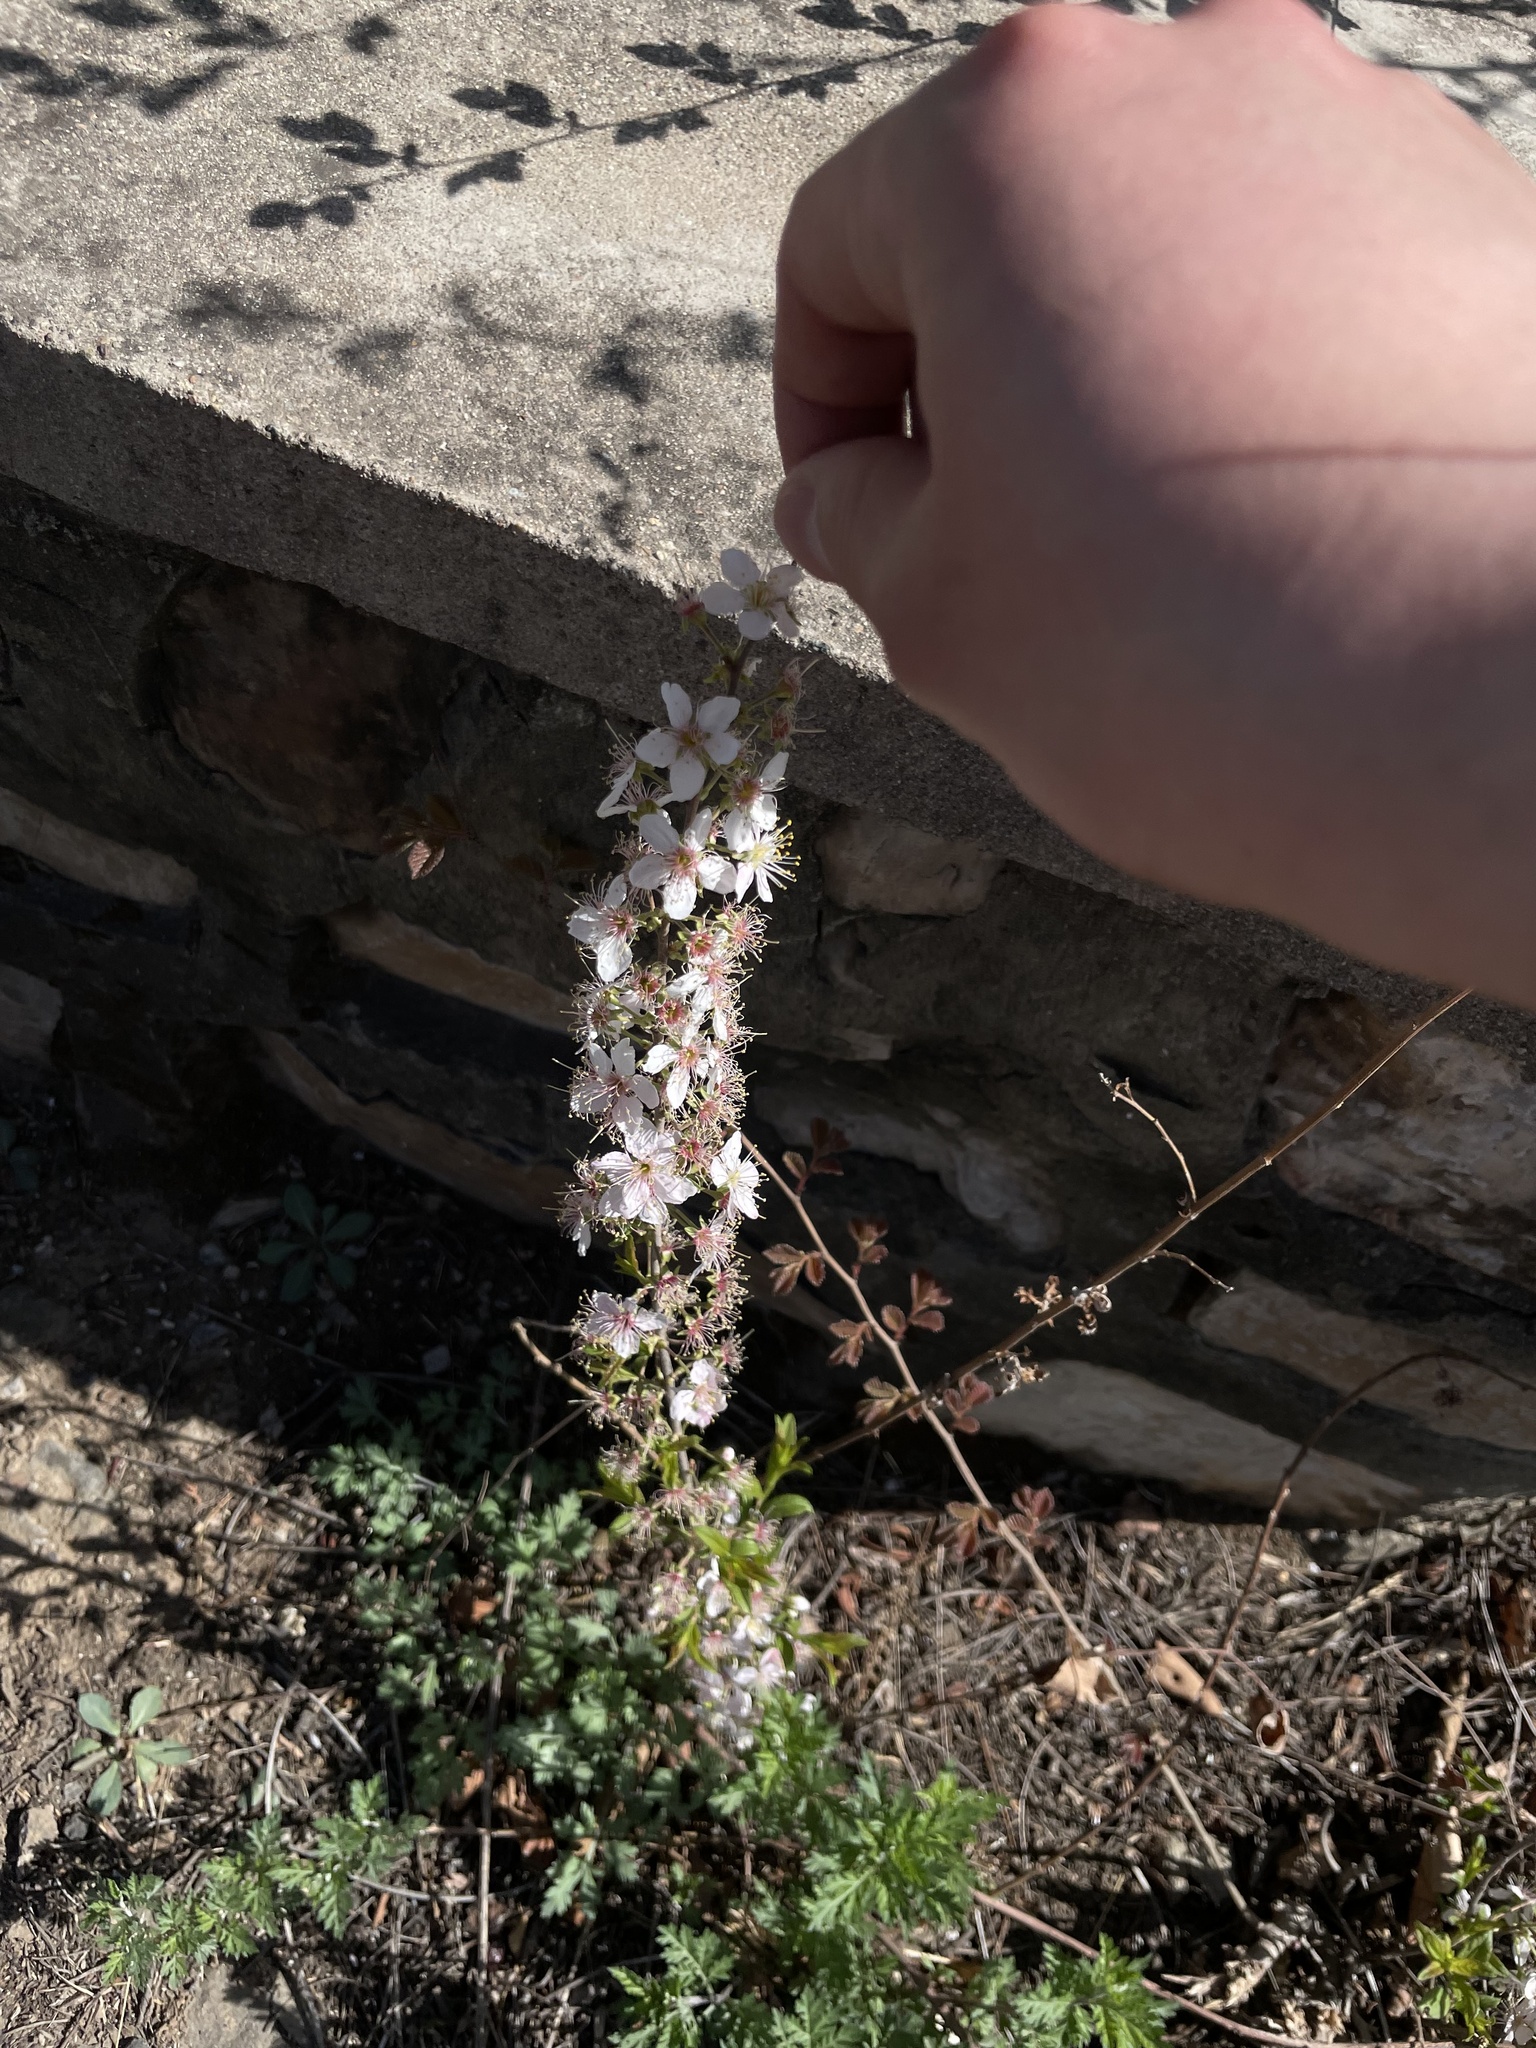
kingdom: Plantae
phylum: Tracheophyta
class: Magnoliopsida
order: Rosales
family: Rosaceae
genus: Prunus
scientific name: Prunus humilis
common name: Humble bush cherry
